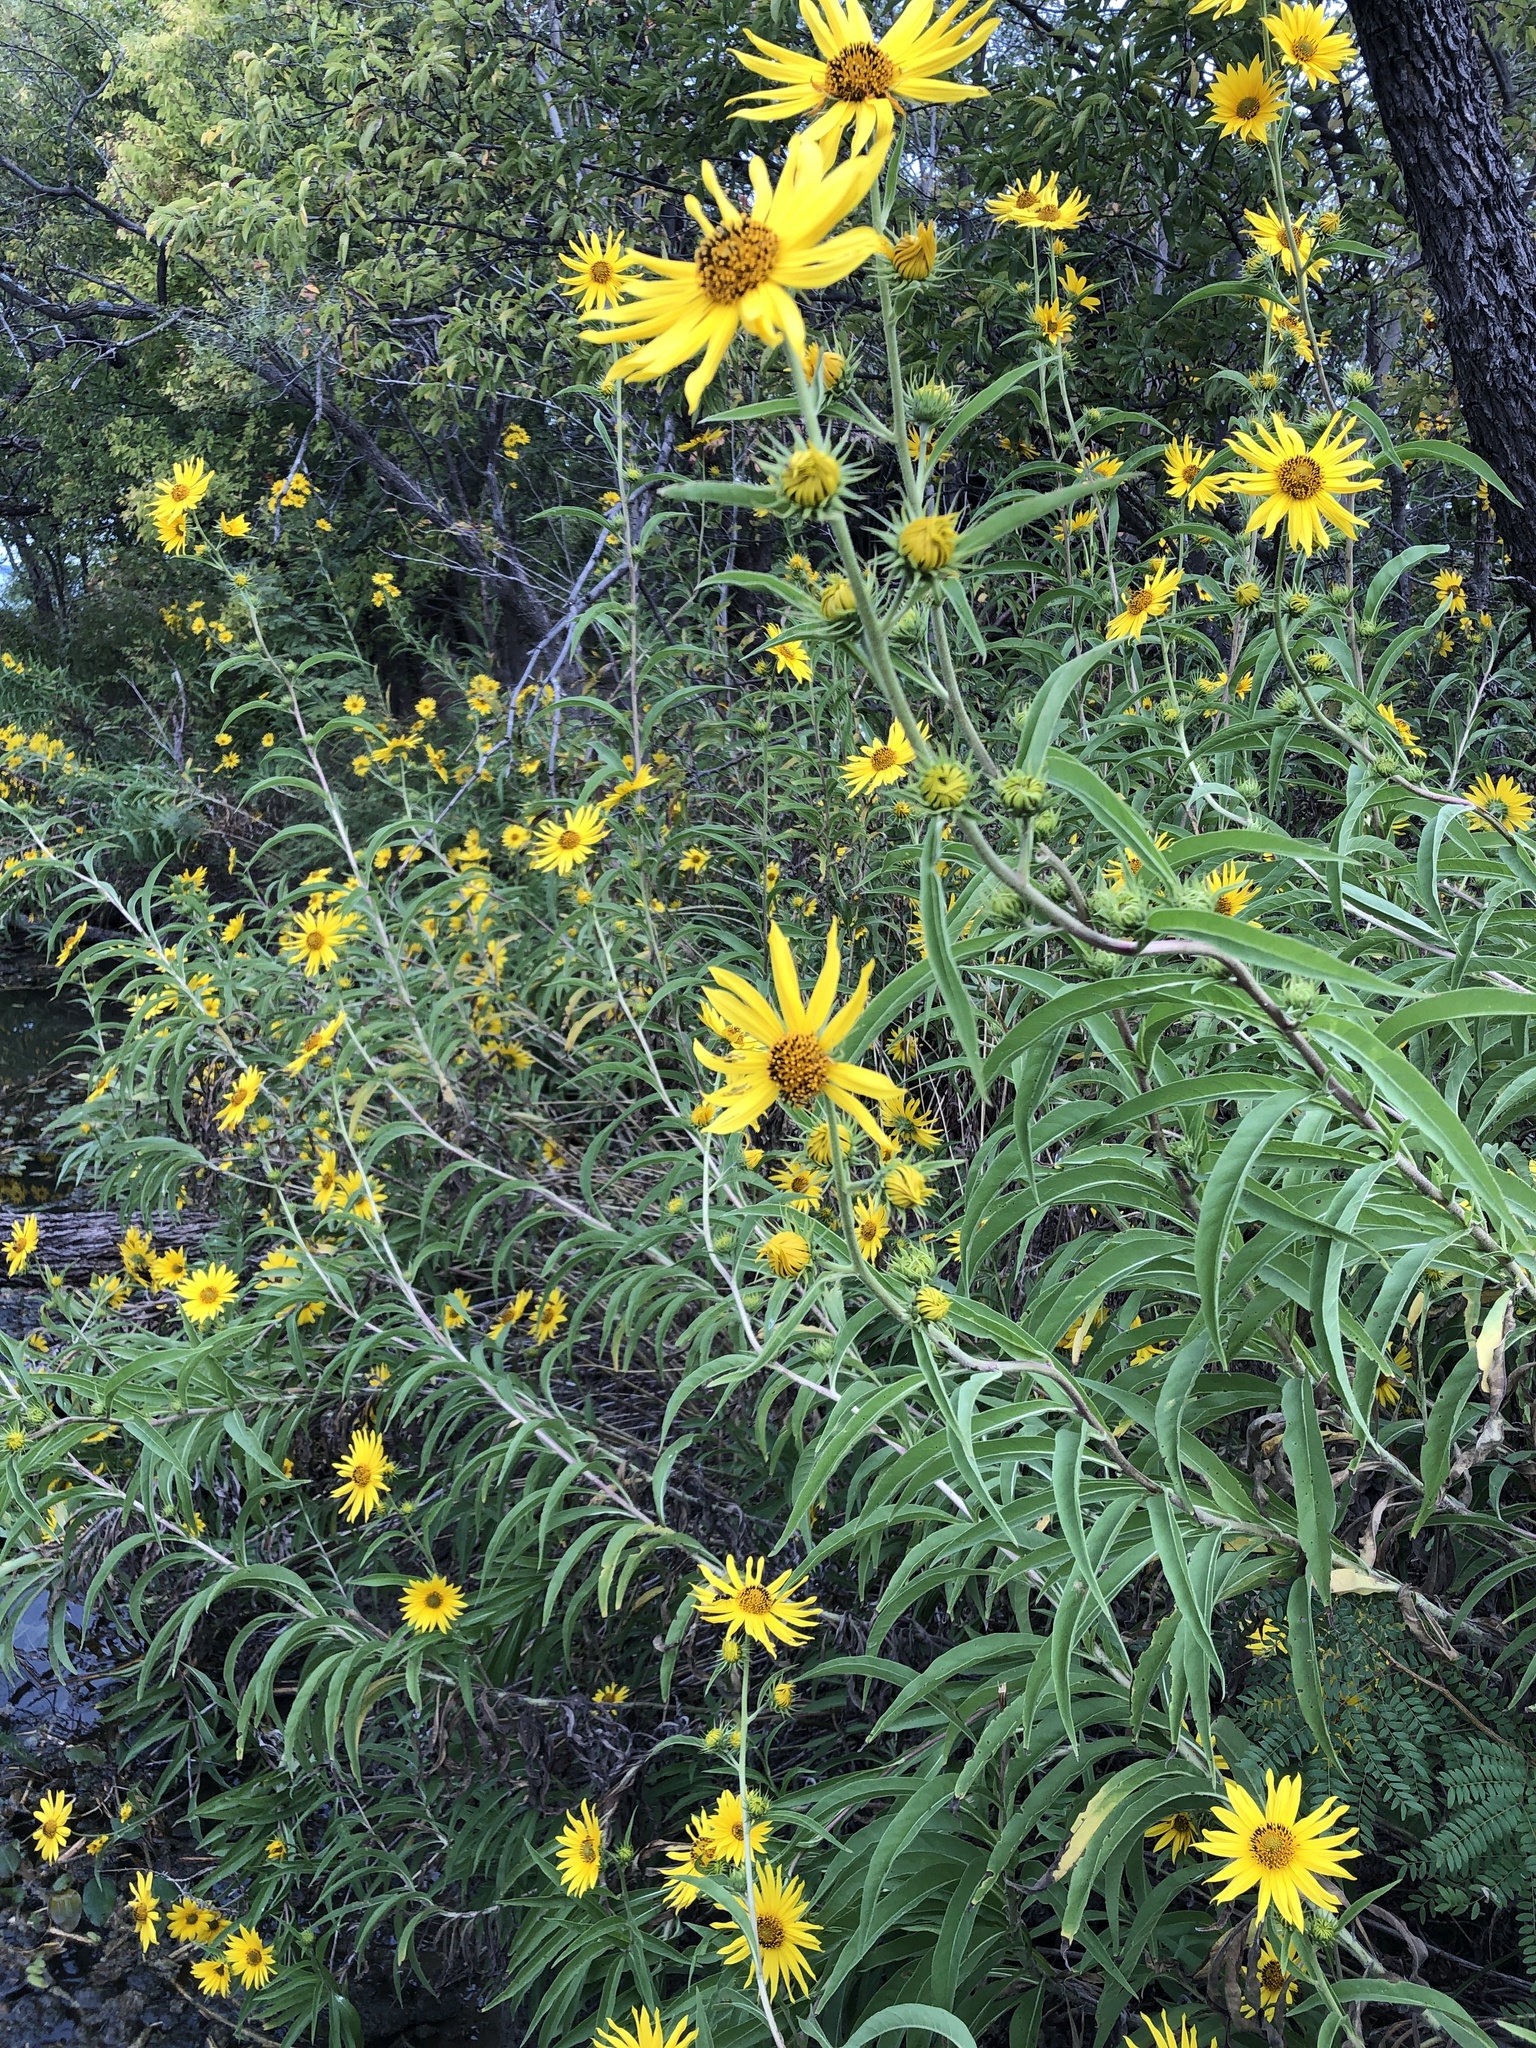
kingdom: Plantae
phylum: Tracheophyta
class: Magnoliopsida
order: Asterales
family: Asteraceae
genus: Helianthus
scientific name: Helianthus maximiliani
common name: Maximilian's sunflower
